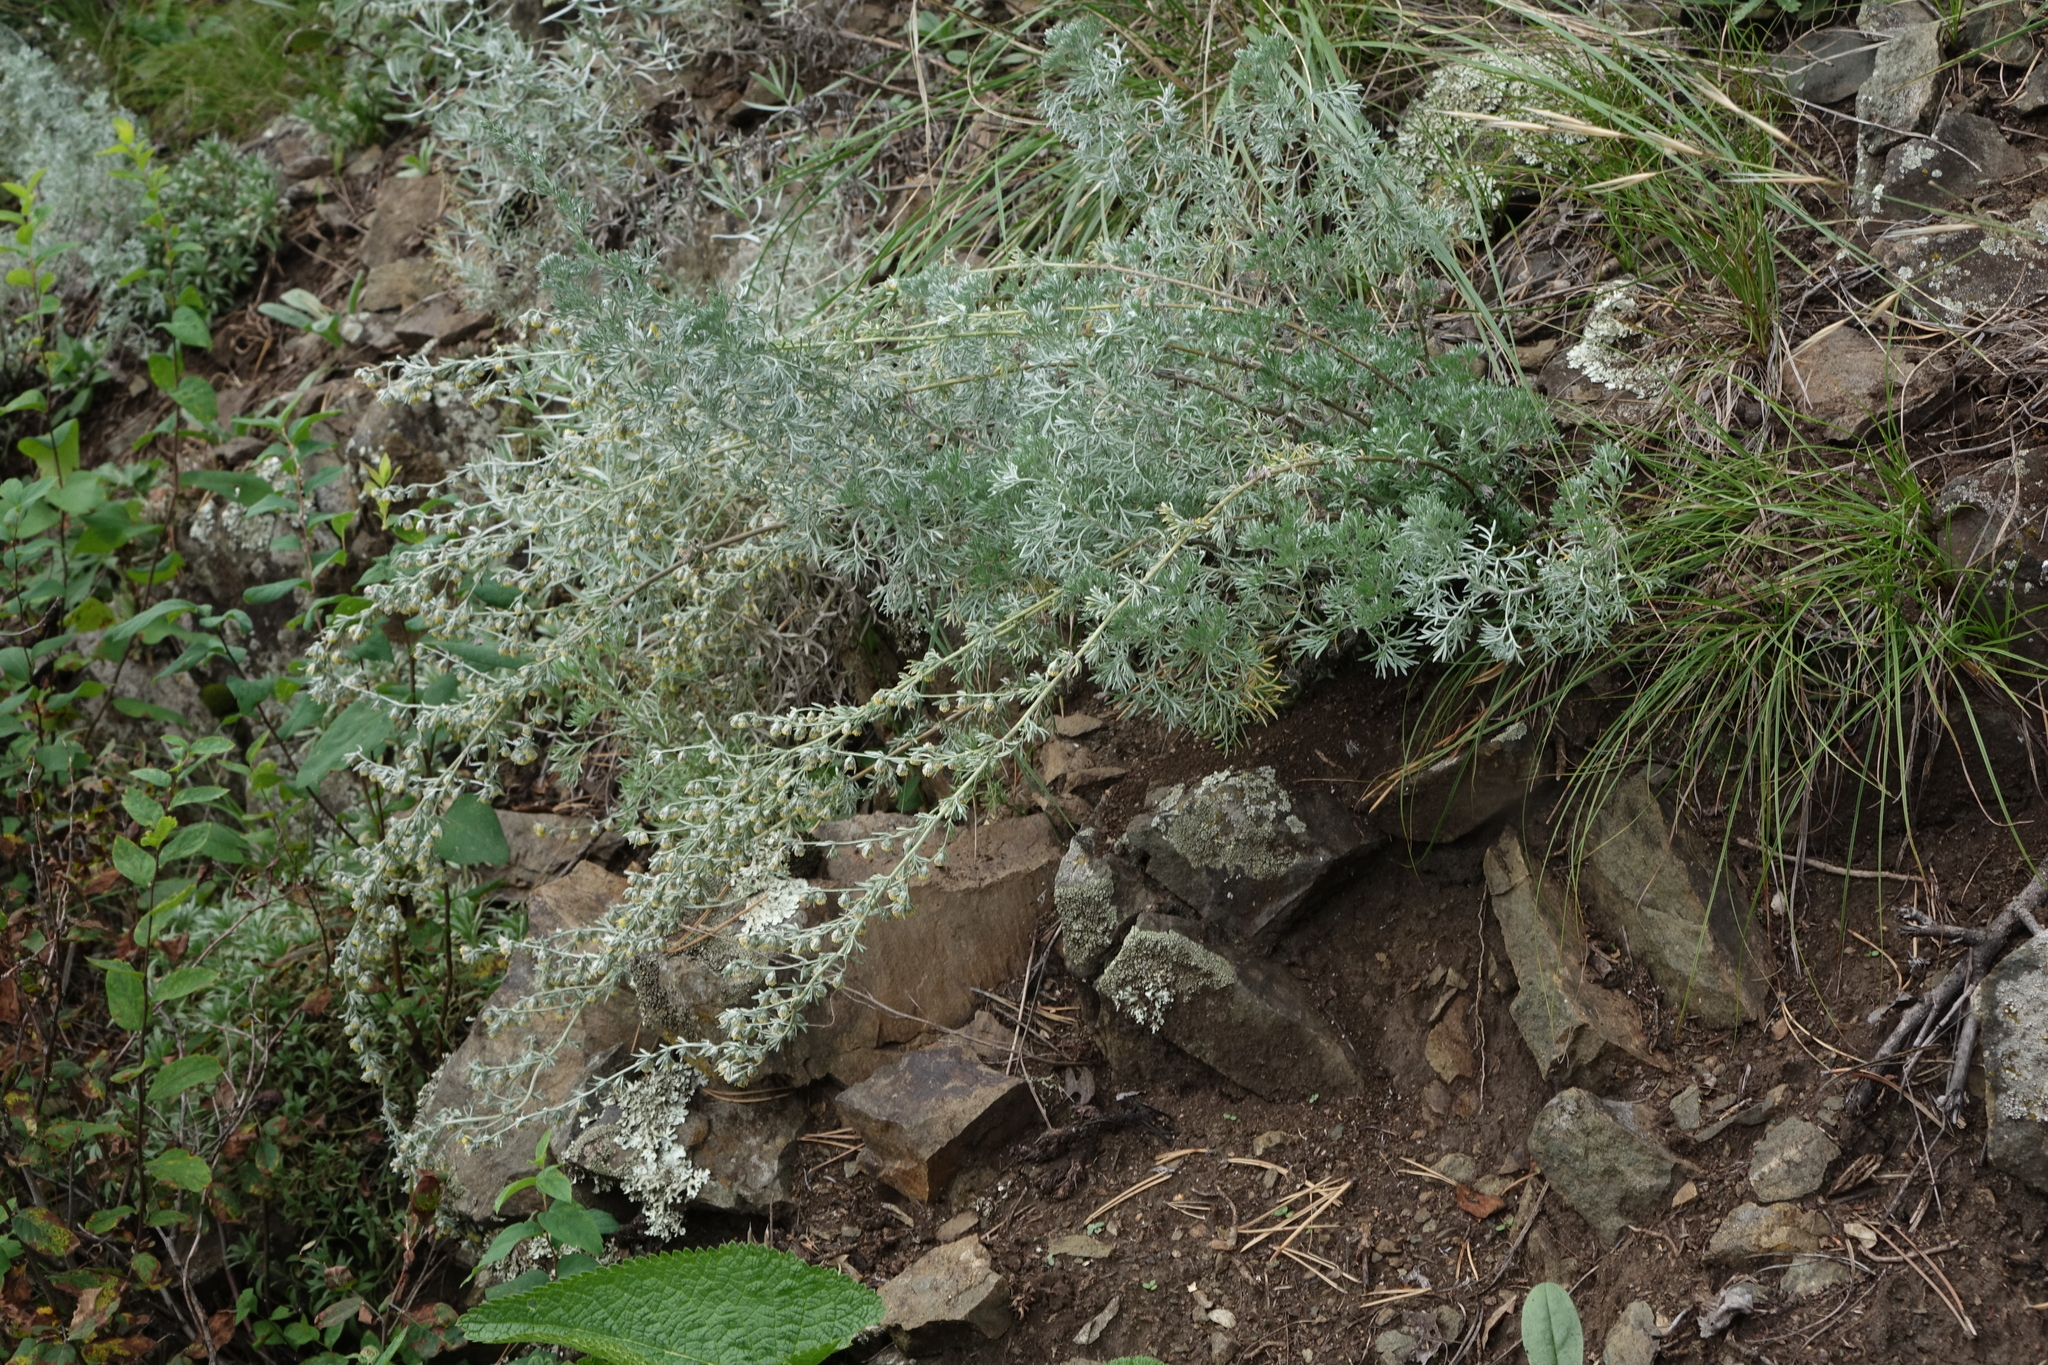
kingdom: Plantae
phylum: Tracheophyta
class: Magnoliopsida
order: Asterales
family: Asteraceae
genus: Artemisia
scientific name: Artemisia frigida
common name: Prairie sagewort
